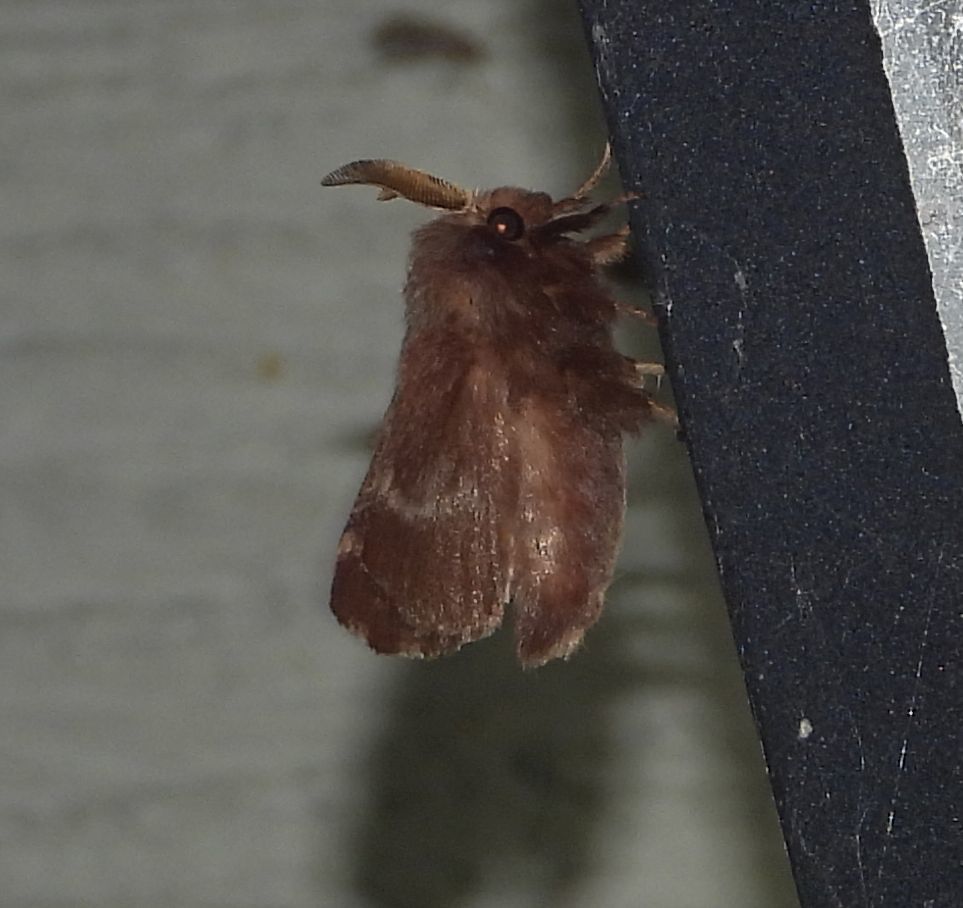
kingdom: Animalia
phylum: Arthropoda
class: Insecta
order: Lepidoptera
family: Lasiocampidae
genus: Malacosoma
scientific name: Malacosoma americana
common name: Eastern tent caterpillar moth
